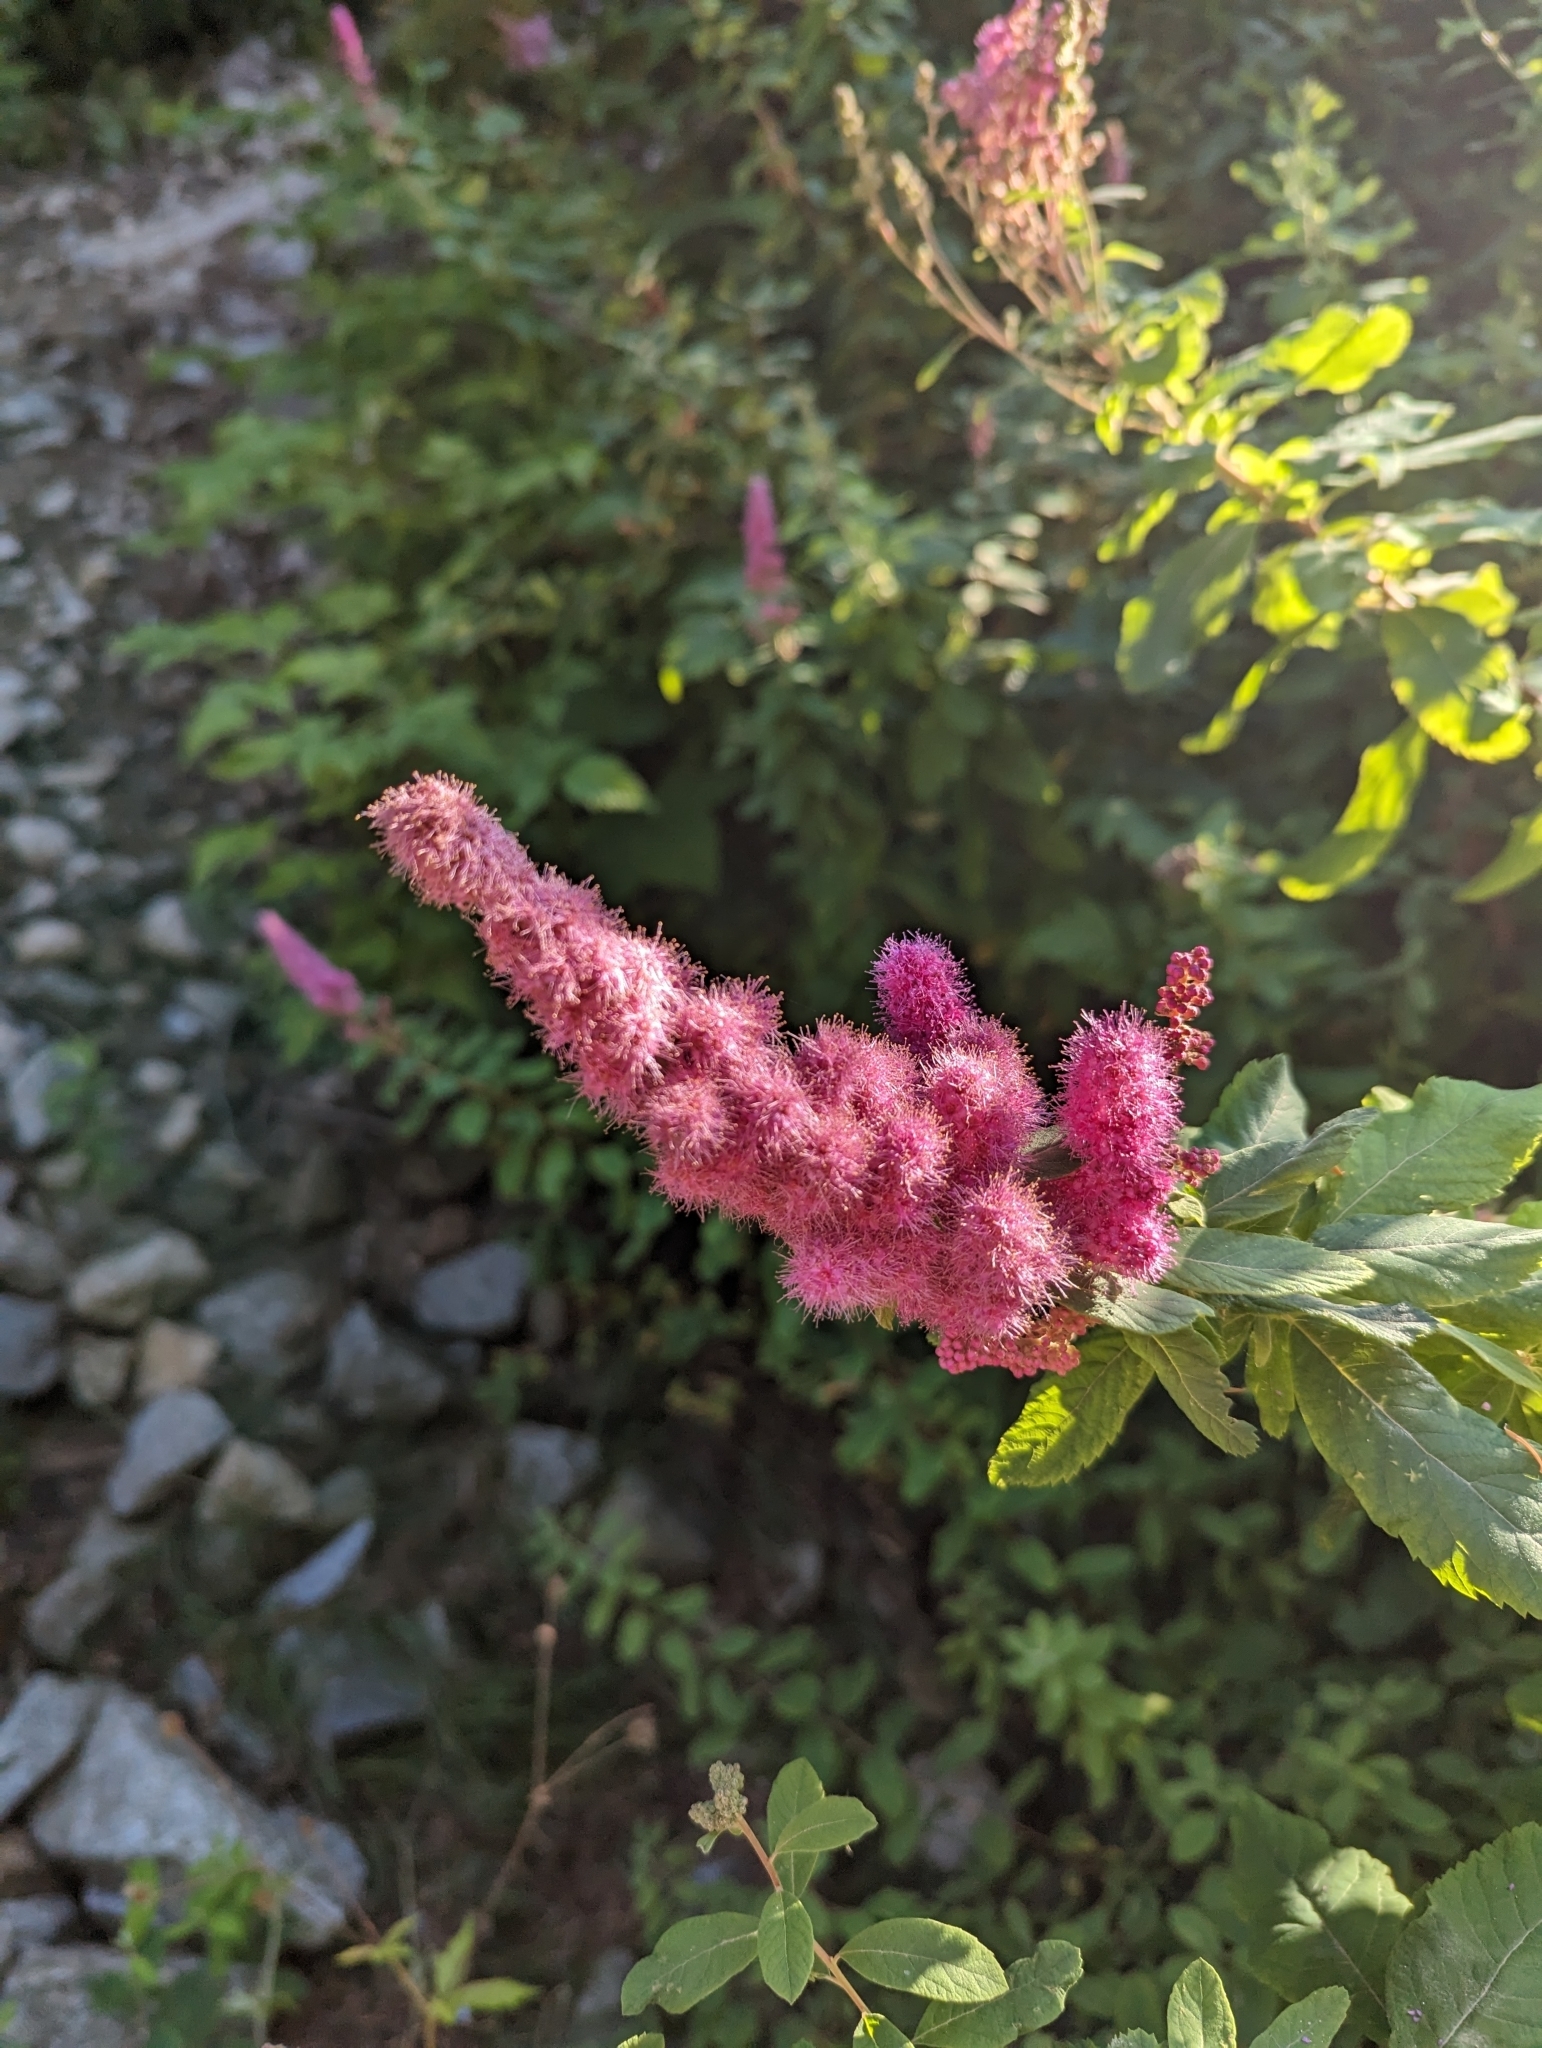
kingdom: Plantae
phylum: Tracheophyta
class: Magnoliopsida
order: Rosales
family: Rosaceae
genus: Spiraea
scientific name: Spiraea douglasii
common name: Steeplebush
